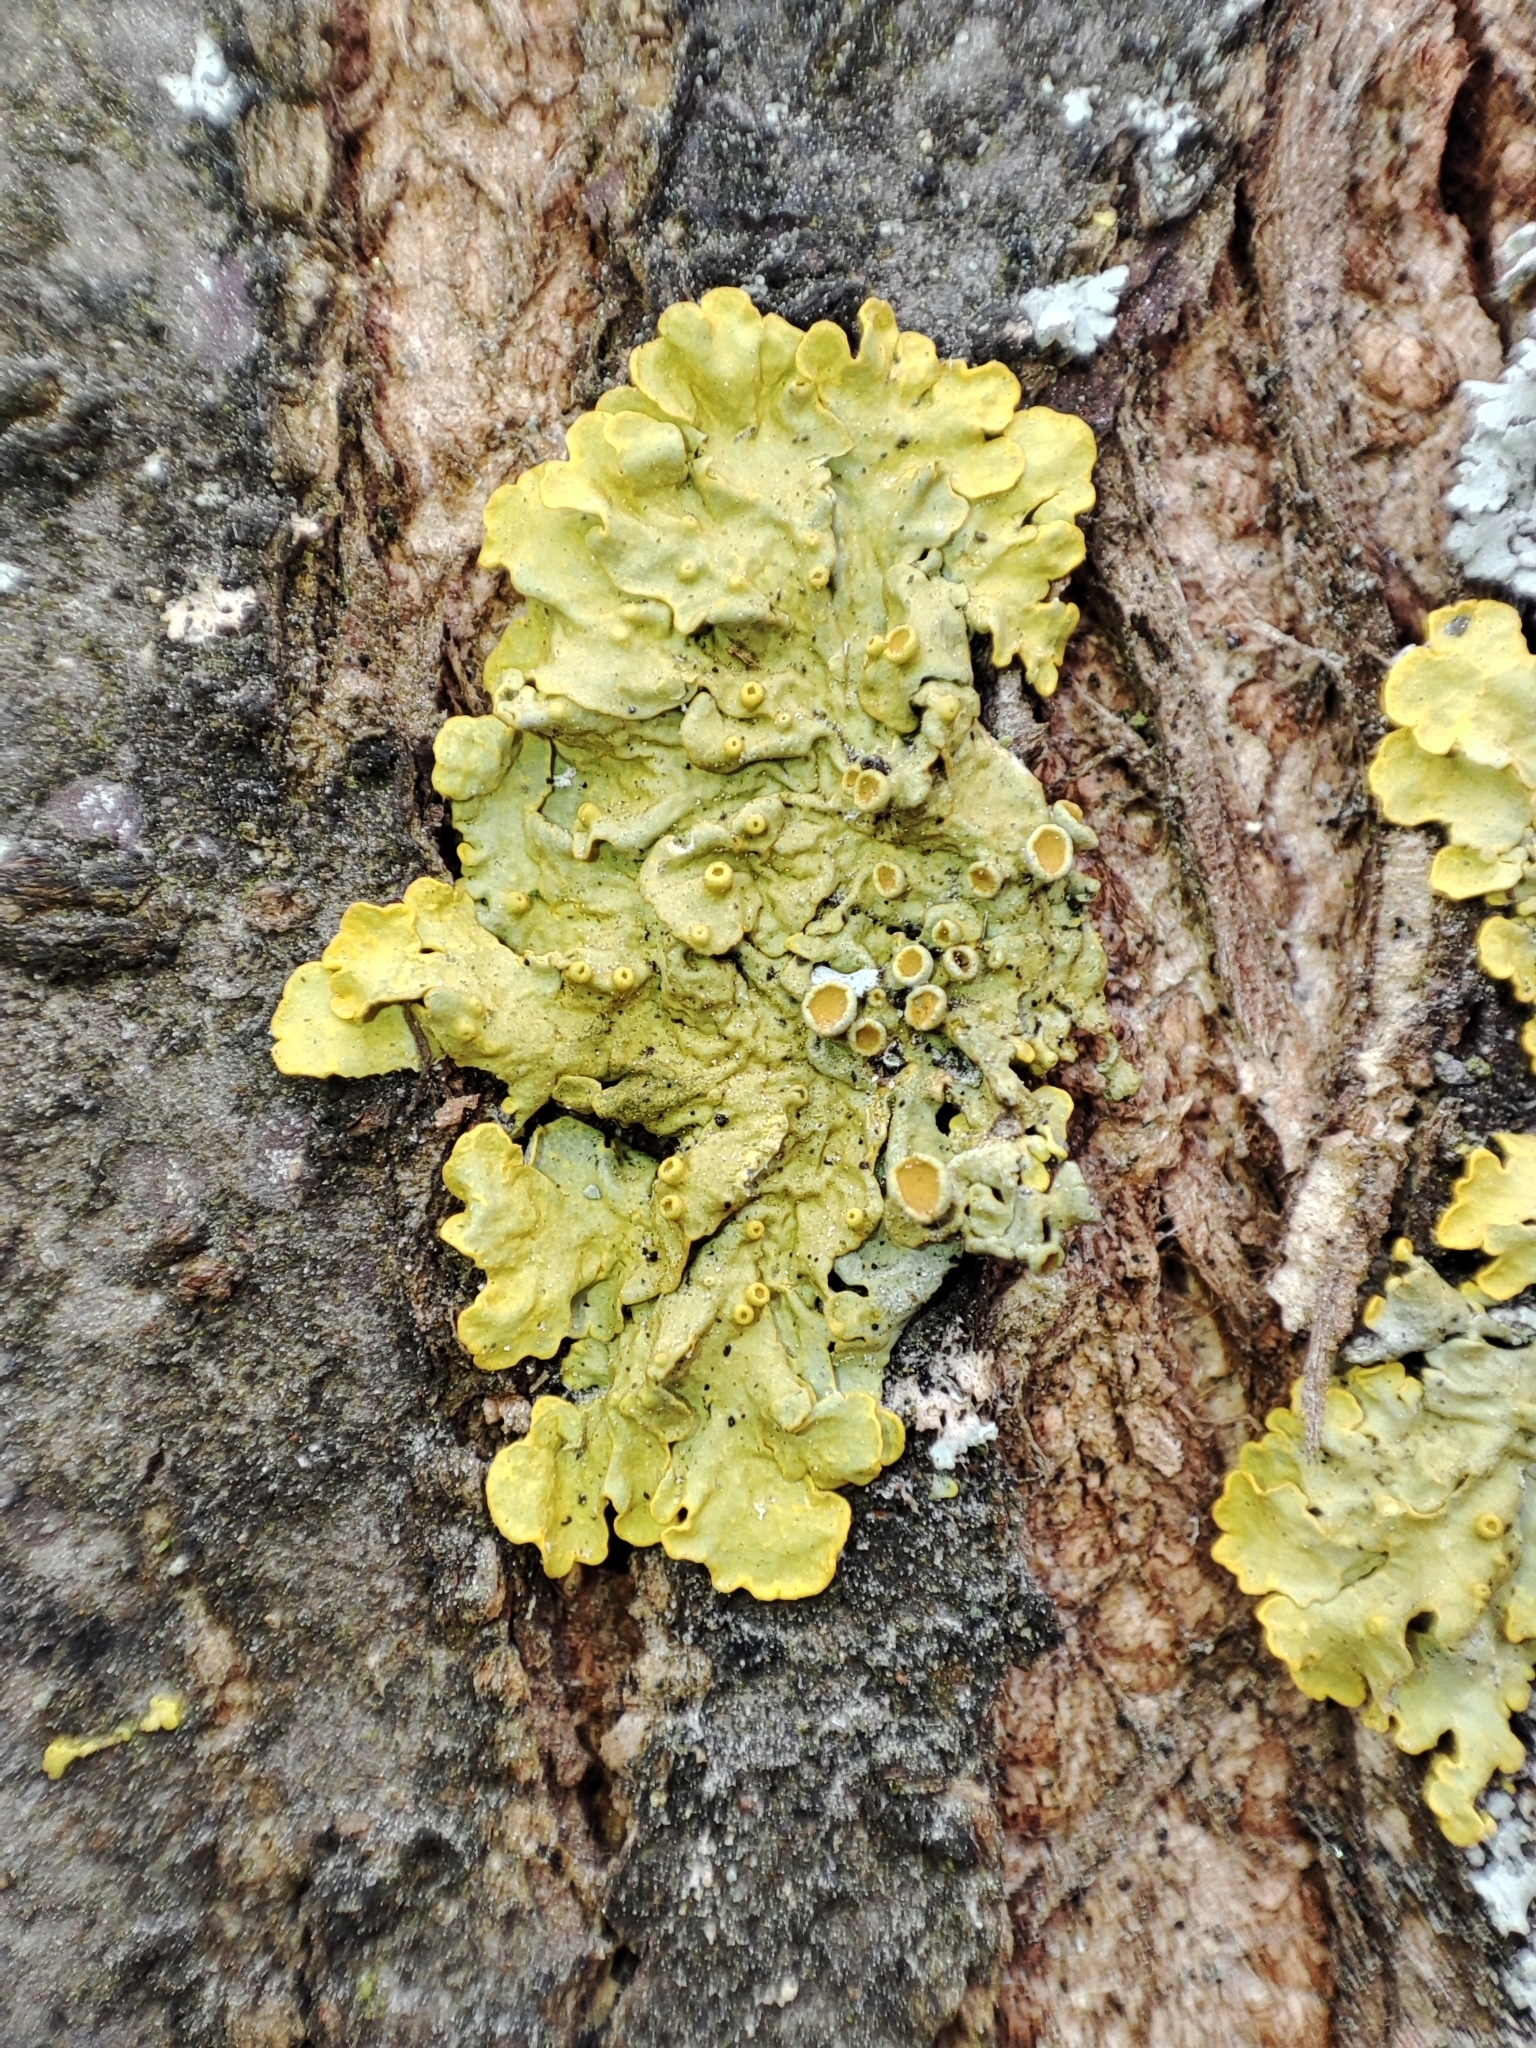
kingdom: Fungi
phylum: Ascomycota
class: Lecanoromycetes
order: Teloschistales
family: Teloschistaceae
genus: Xanthoria
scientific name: Xanthoria parietina
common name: Common orange lichen
